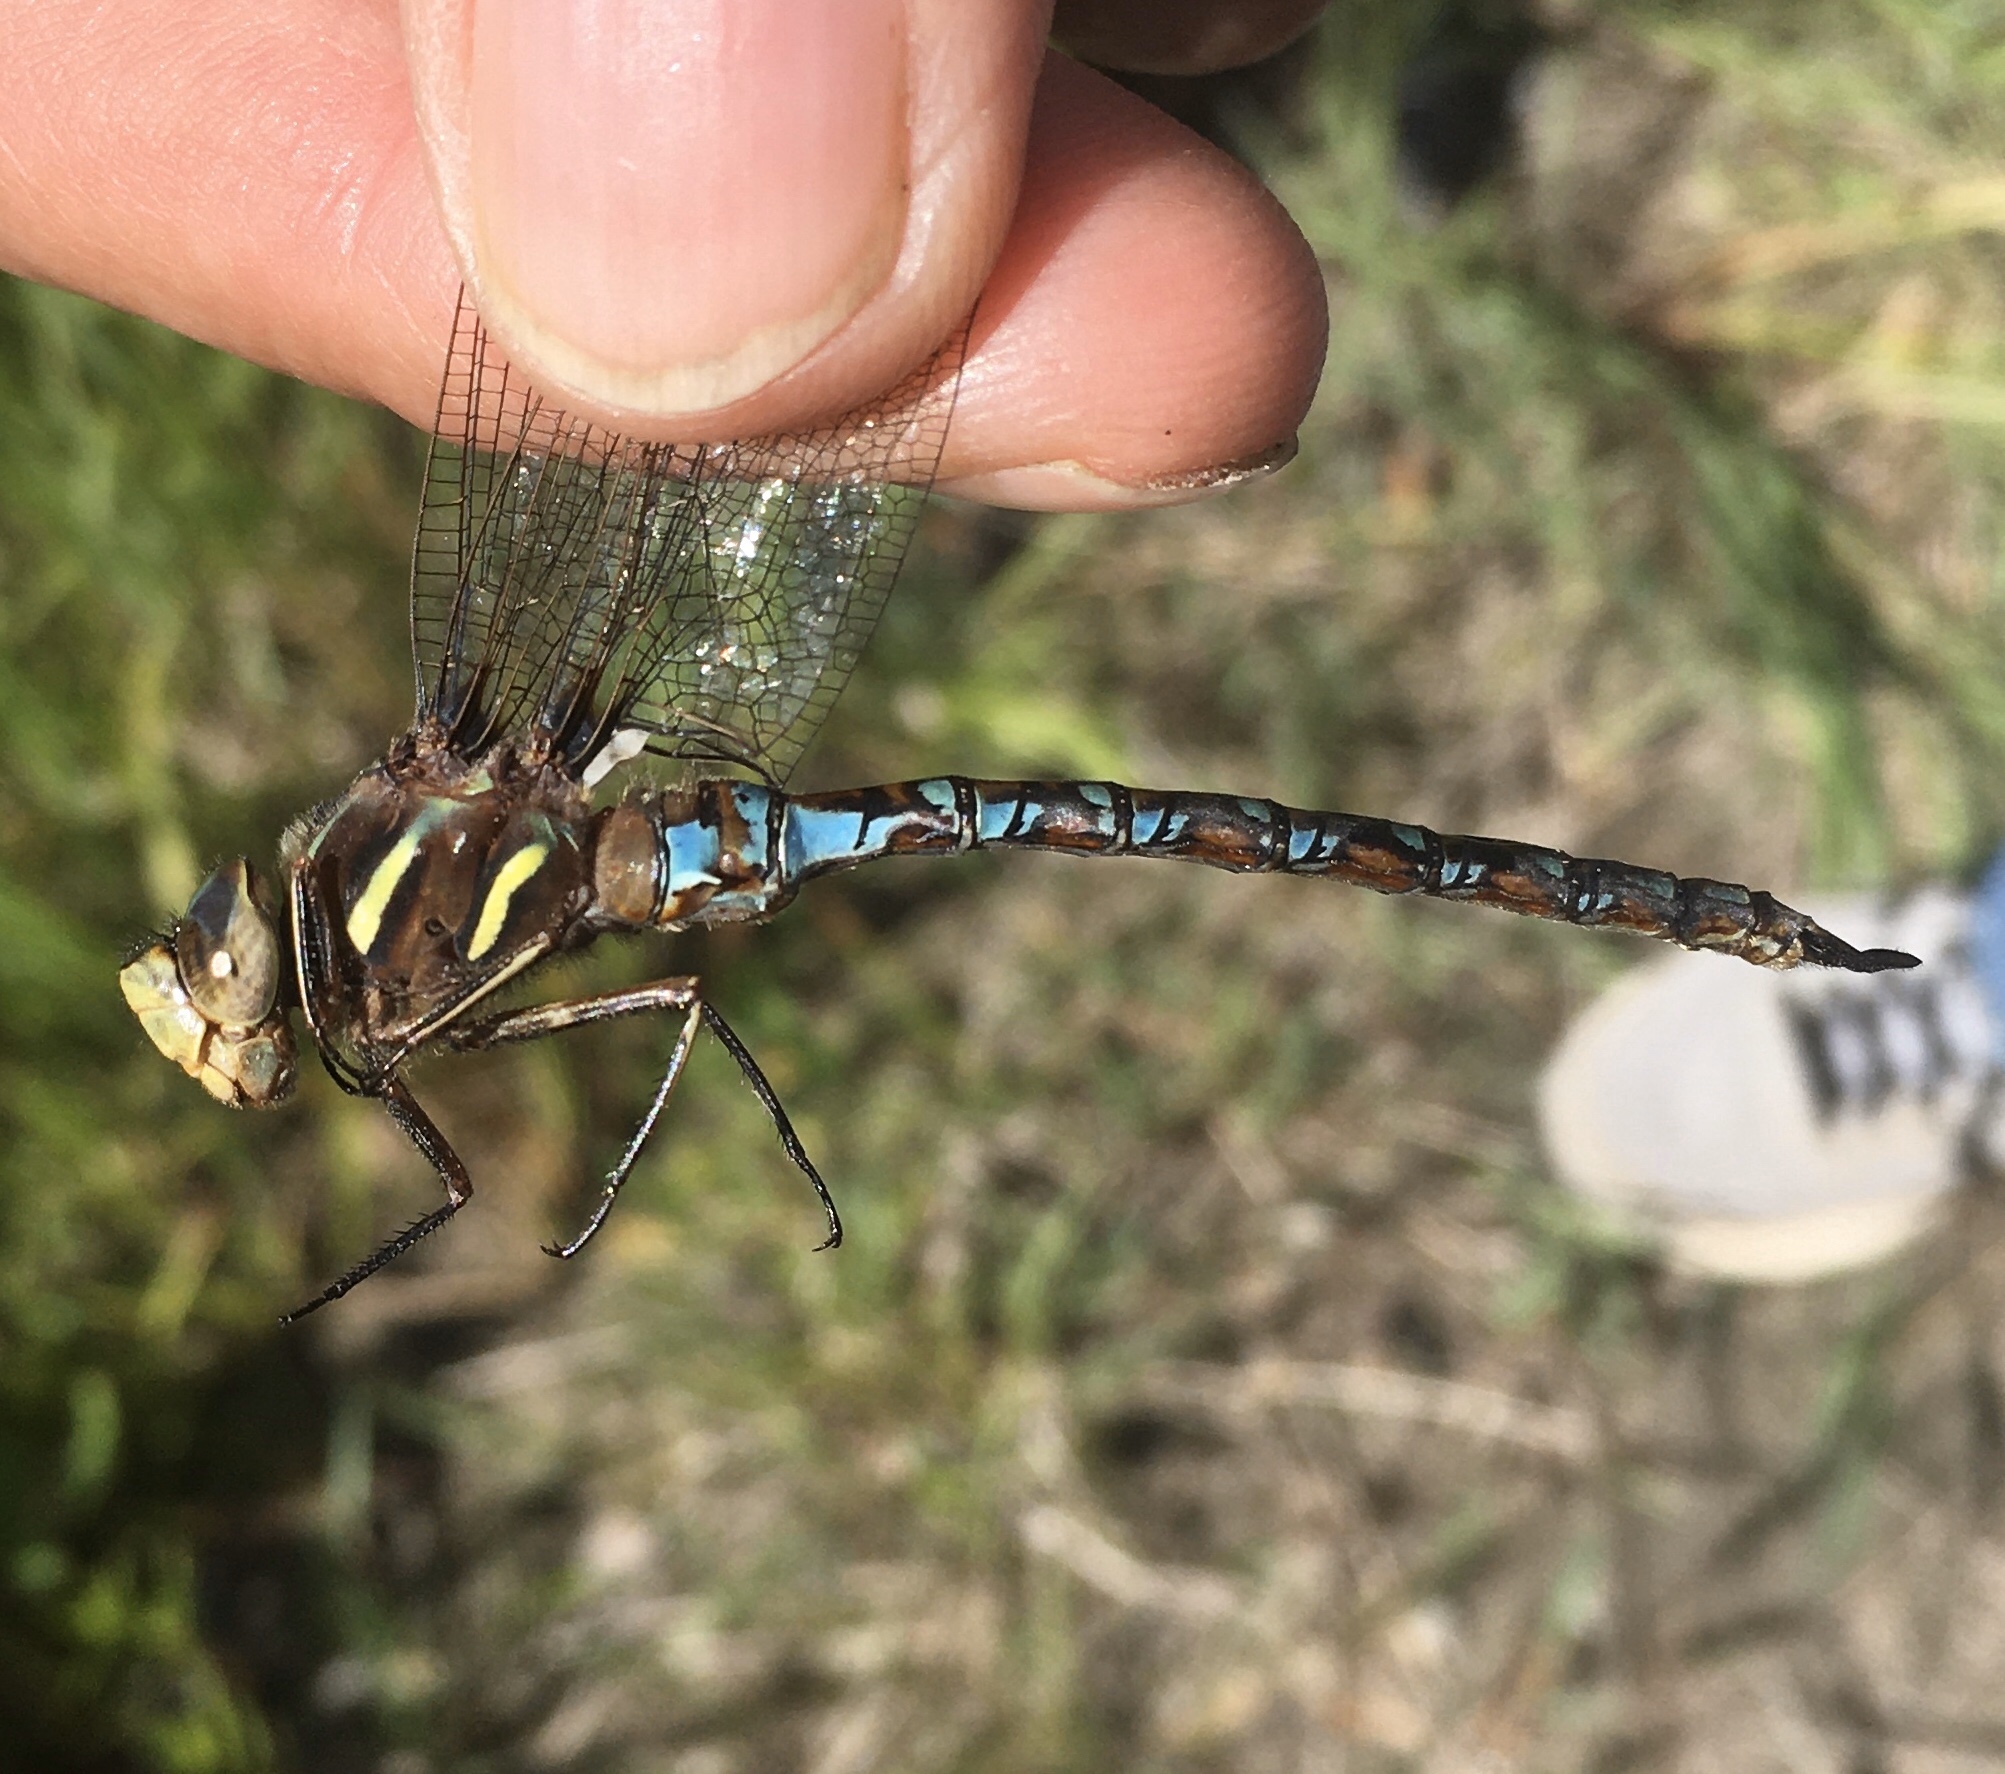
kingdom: Animalia
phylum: Arthropoda
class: Insecta
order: Odonata
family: Aeshnidae
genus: Basiaeschna
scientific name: Basiaeschna janata
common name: Springtime darner
